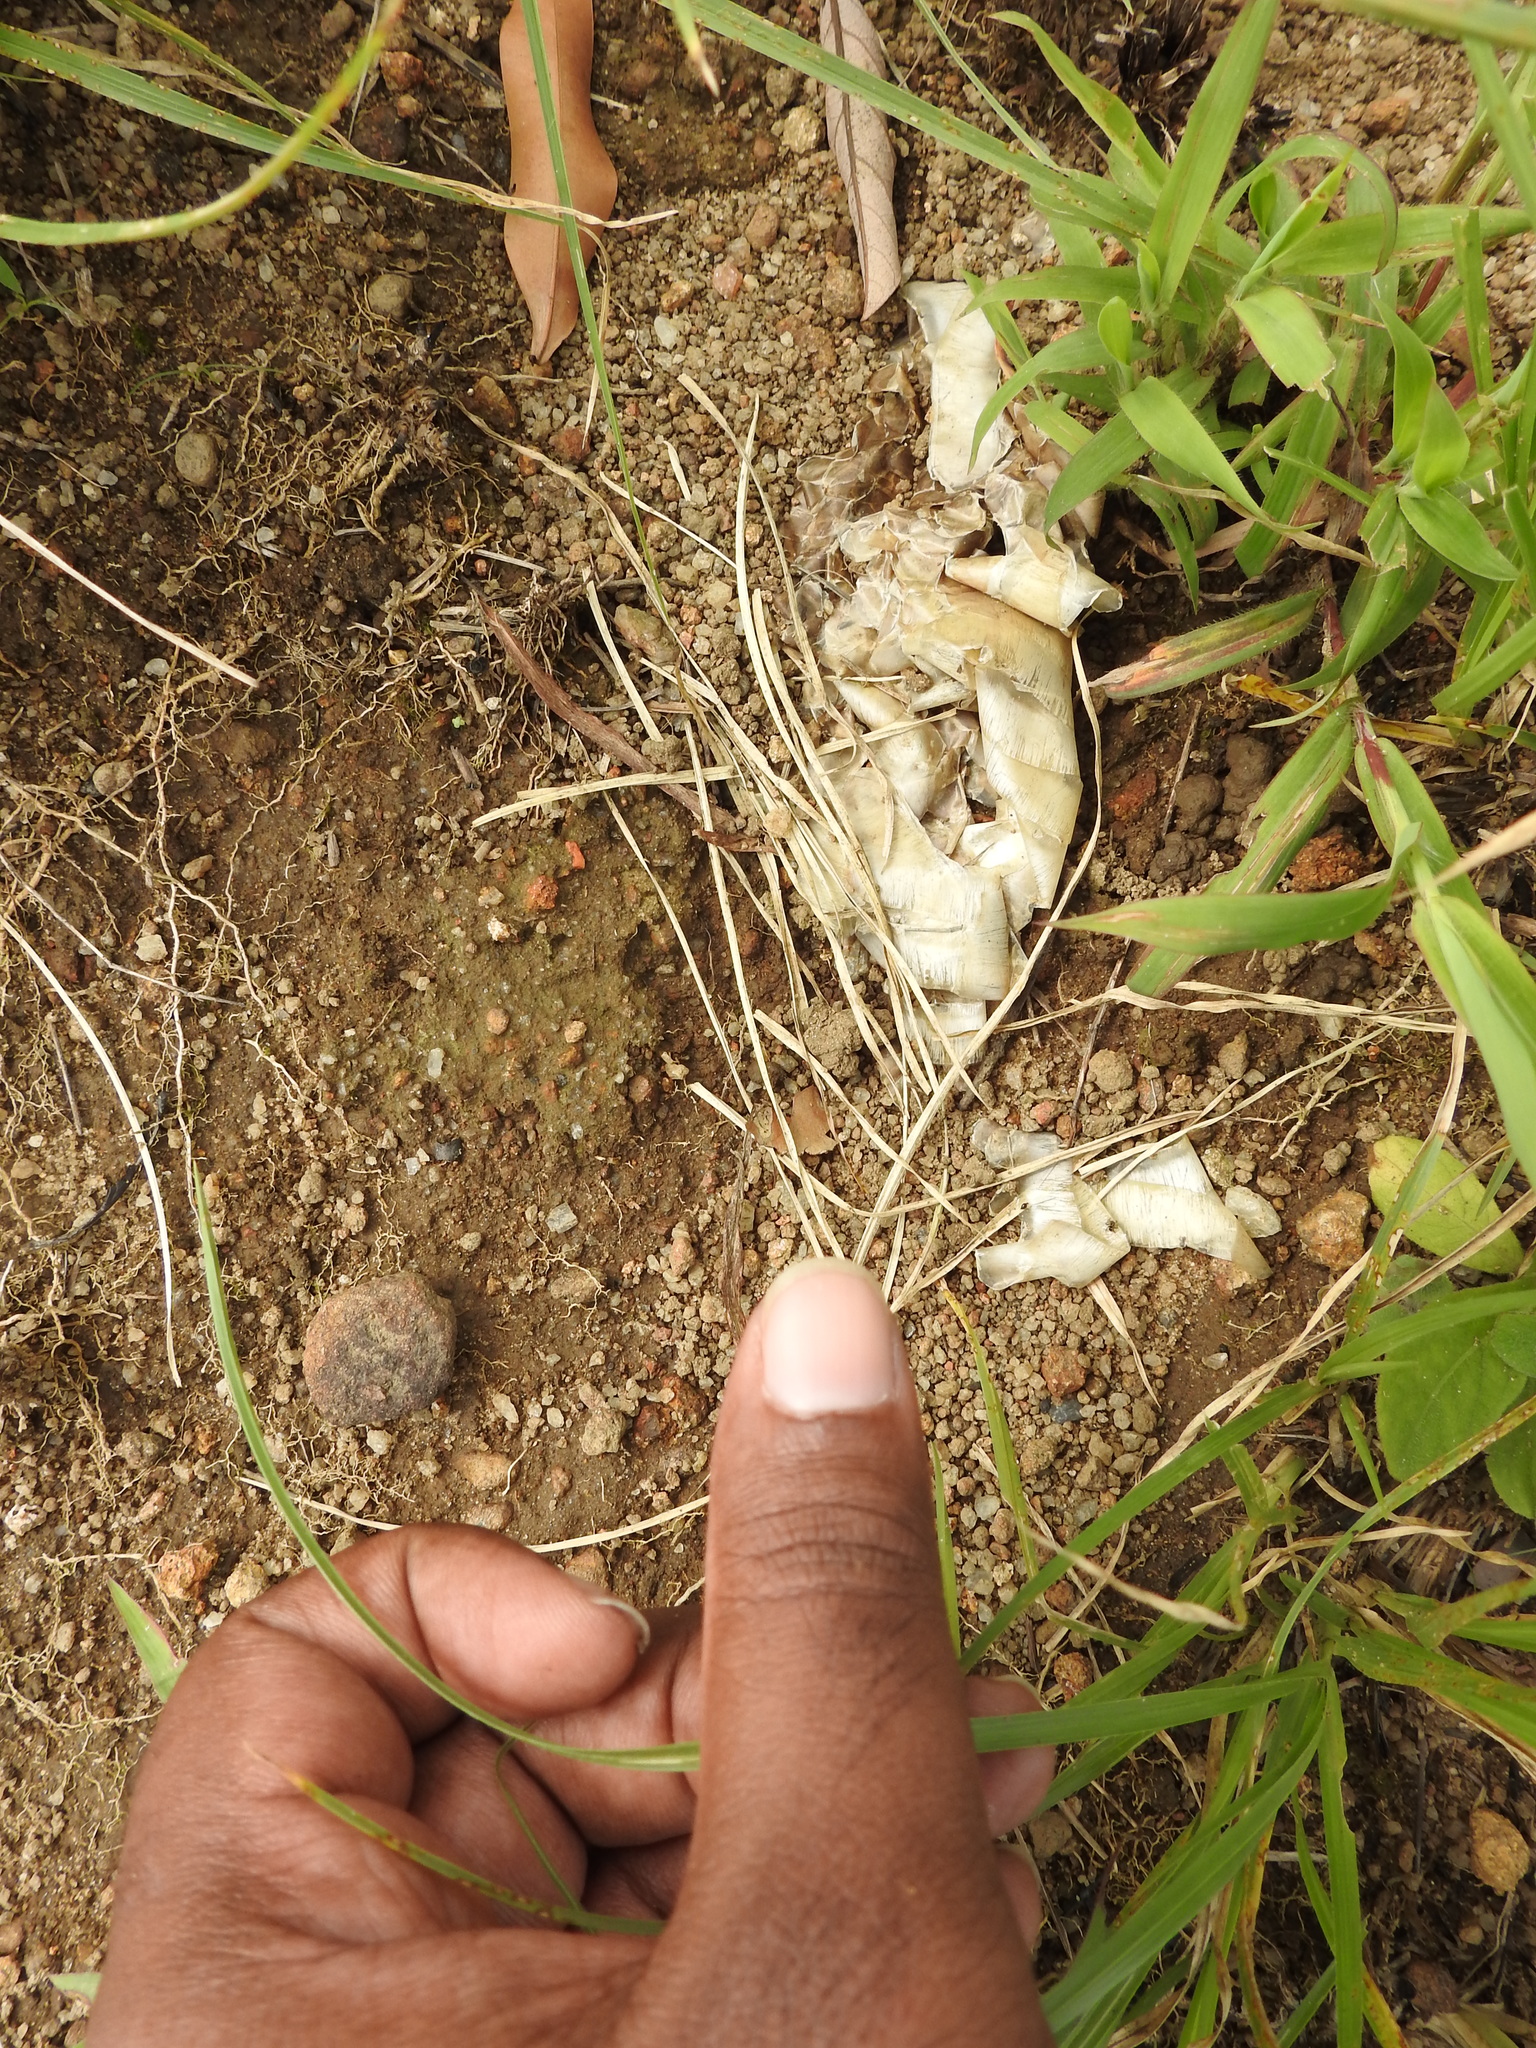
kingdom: Animalia
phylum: Chordata
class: Squamata
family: Elapidae
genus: Ophiophagus
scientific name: Ophiophagus hannah
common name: Hamadryad
